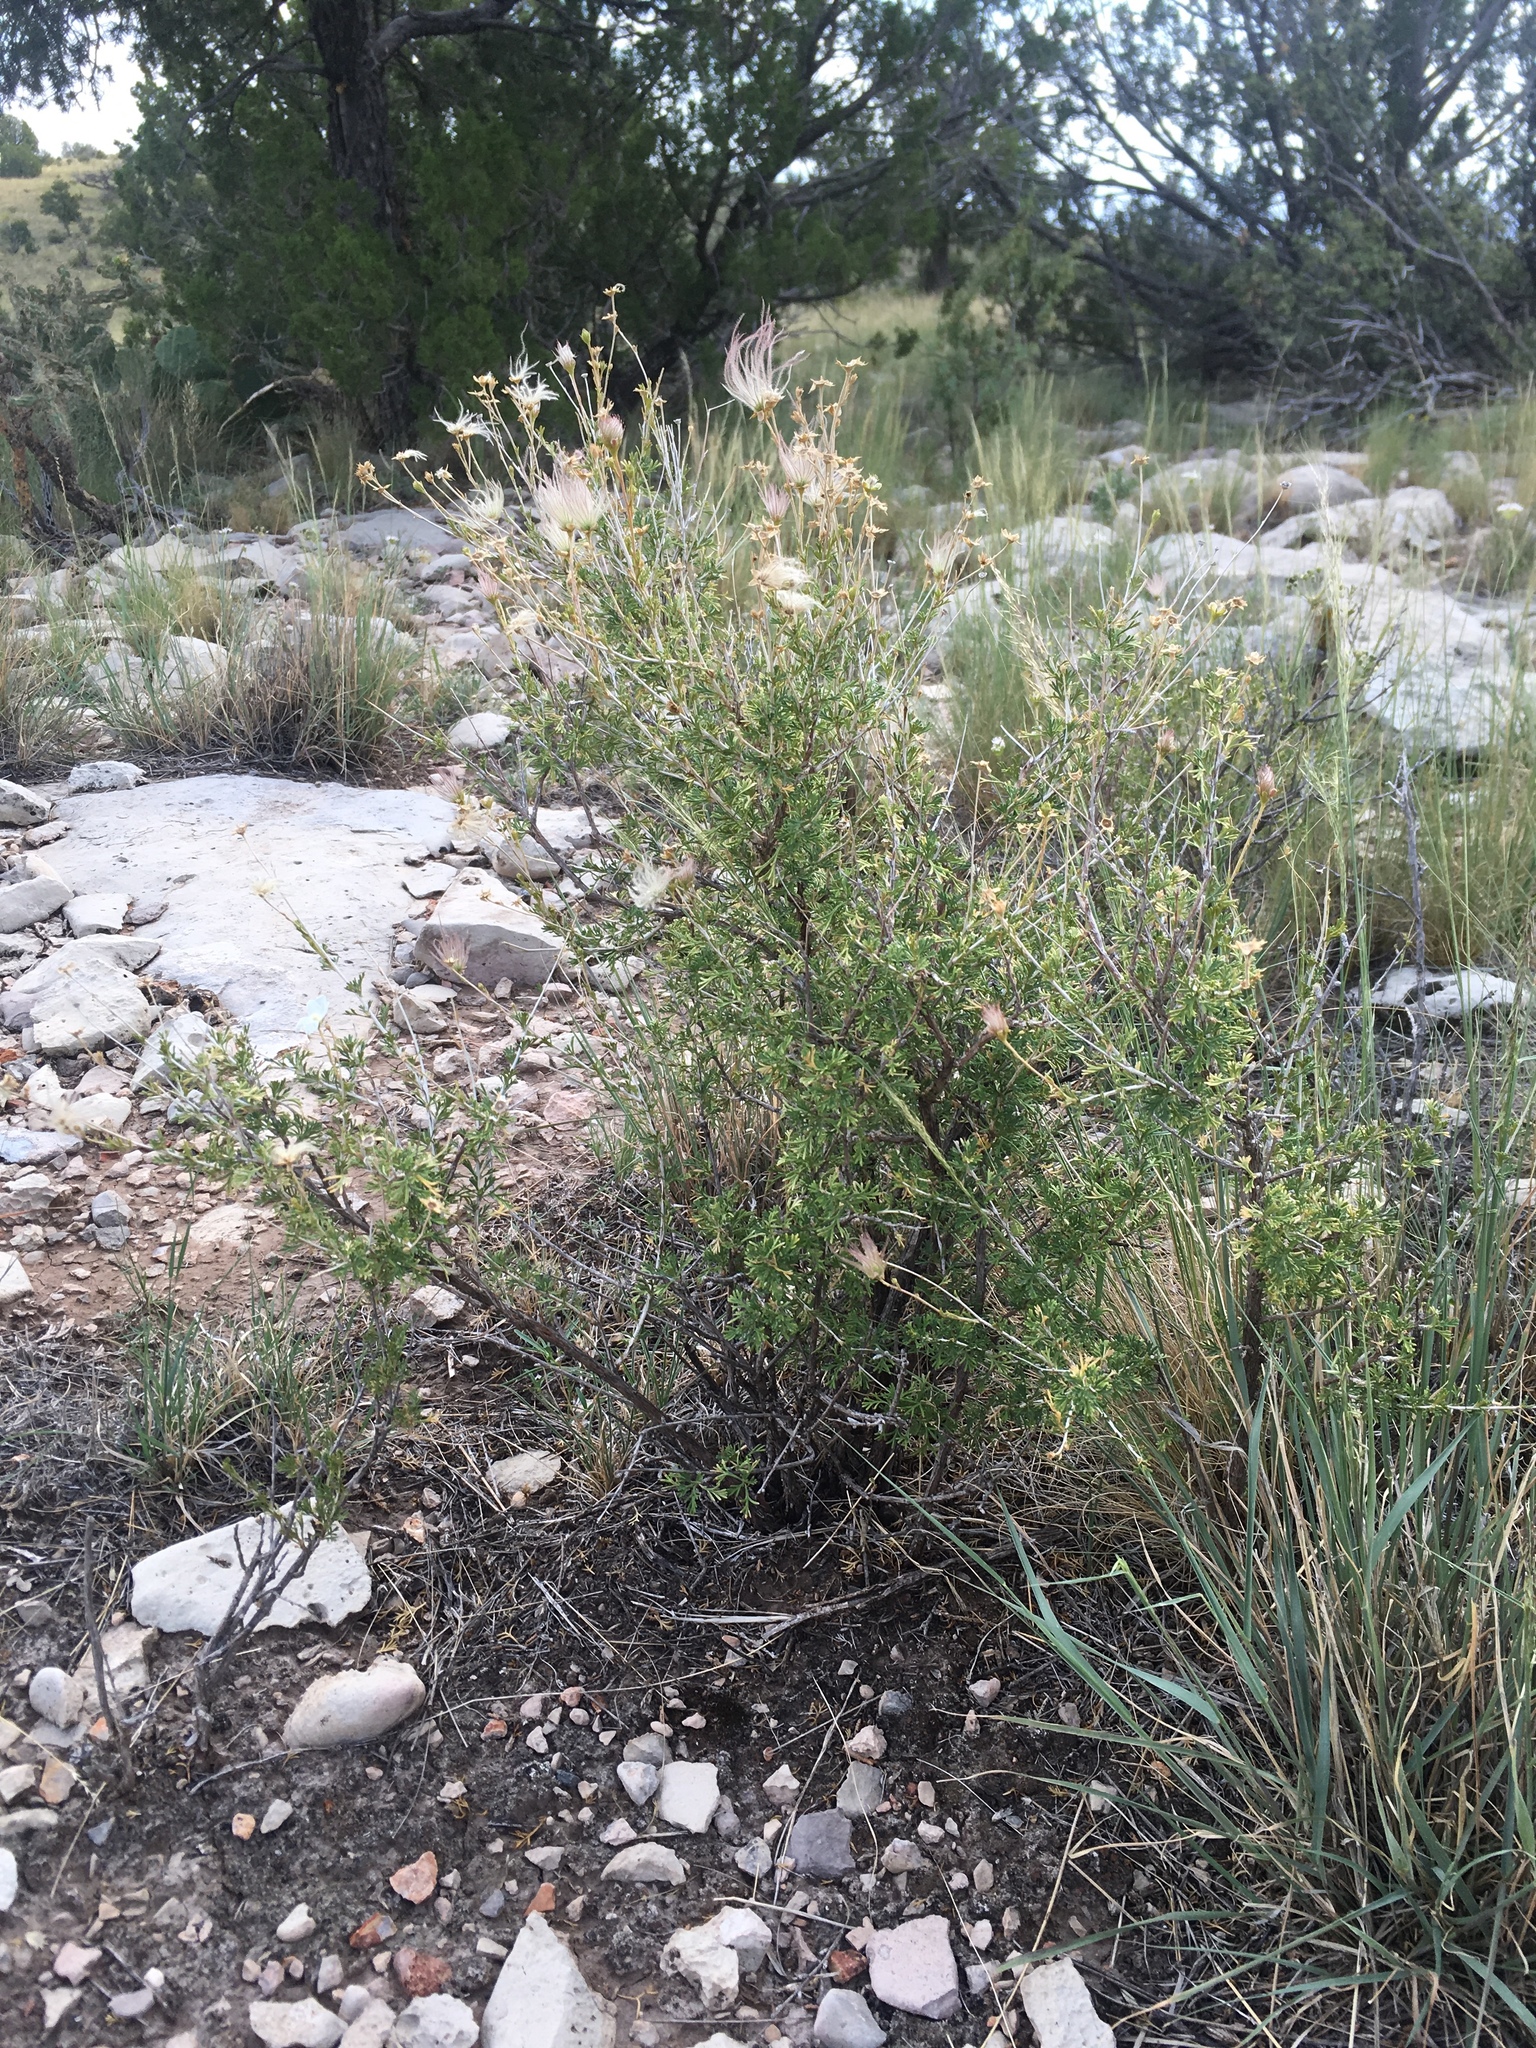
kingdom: Plantae
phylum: Tracheophyta
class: Magnoliopsida
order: Rosales
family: Rosaceae
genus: Fallugia
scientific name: Fallugia paradoxa
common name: Apache-plume
